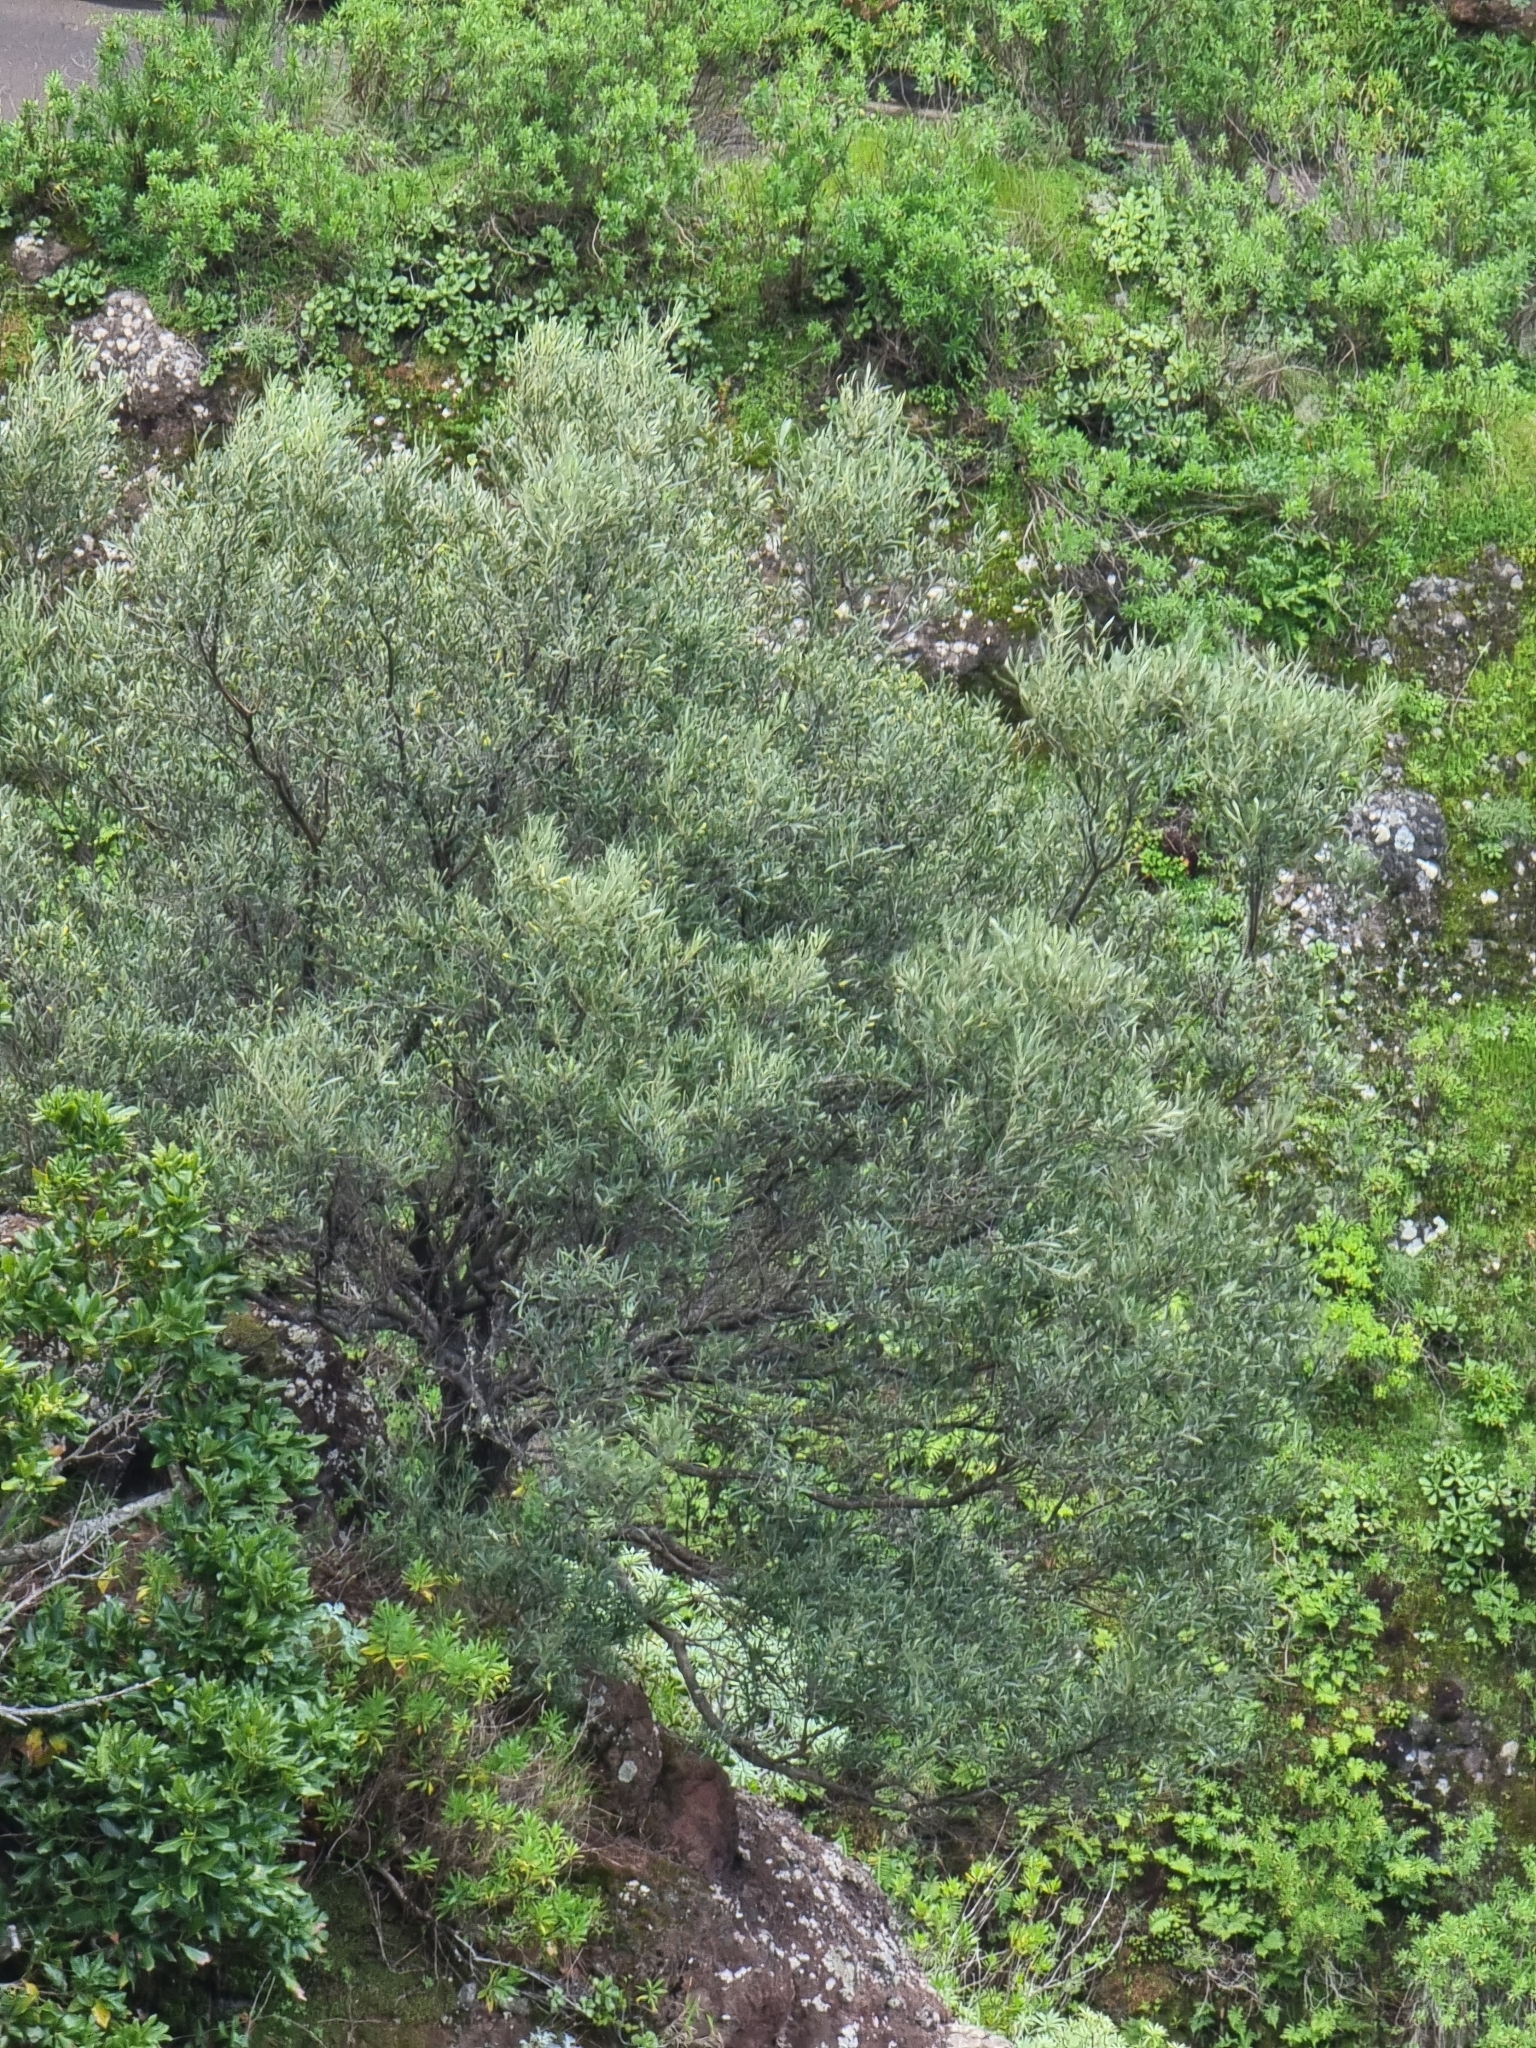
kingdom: Plantae
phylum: Tracheophyta
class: Magnoliopsida
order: Lamiales
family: Oleaceae
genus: Olea
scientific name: Olea europaea
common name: Olive
